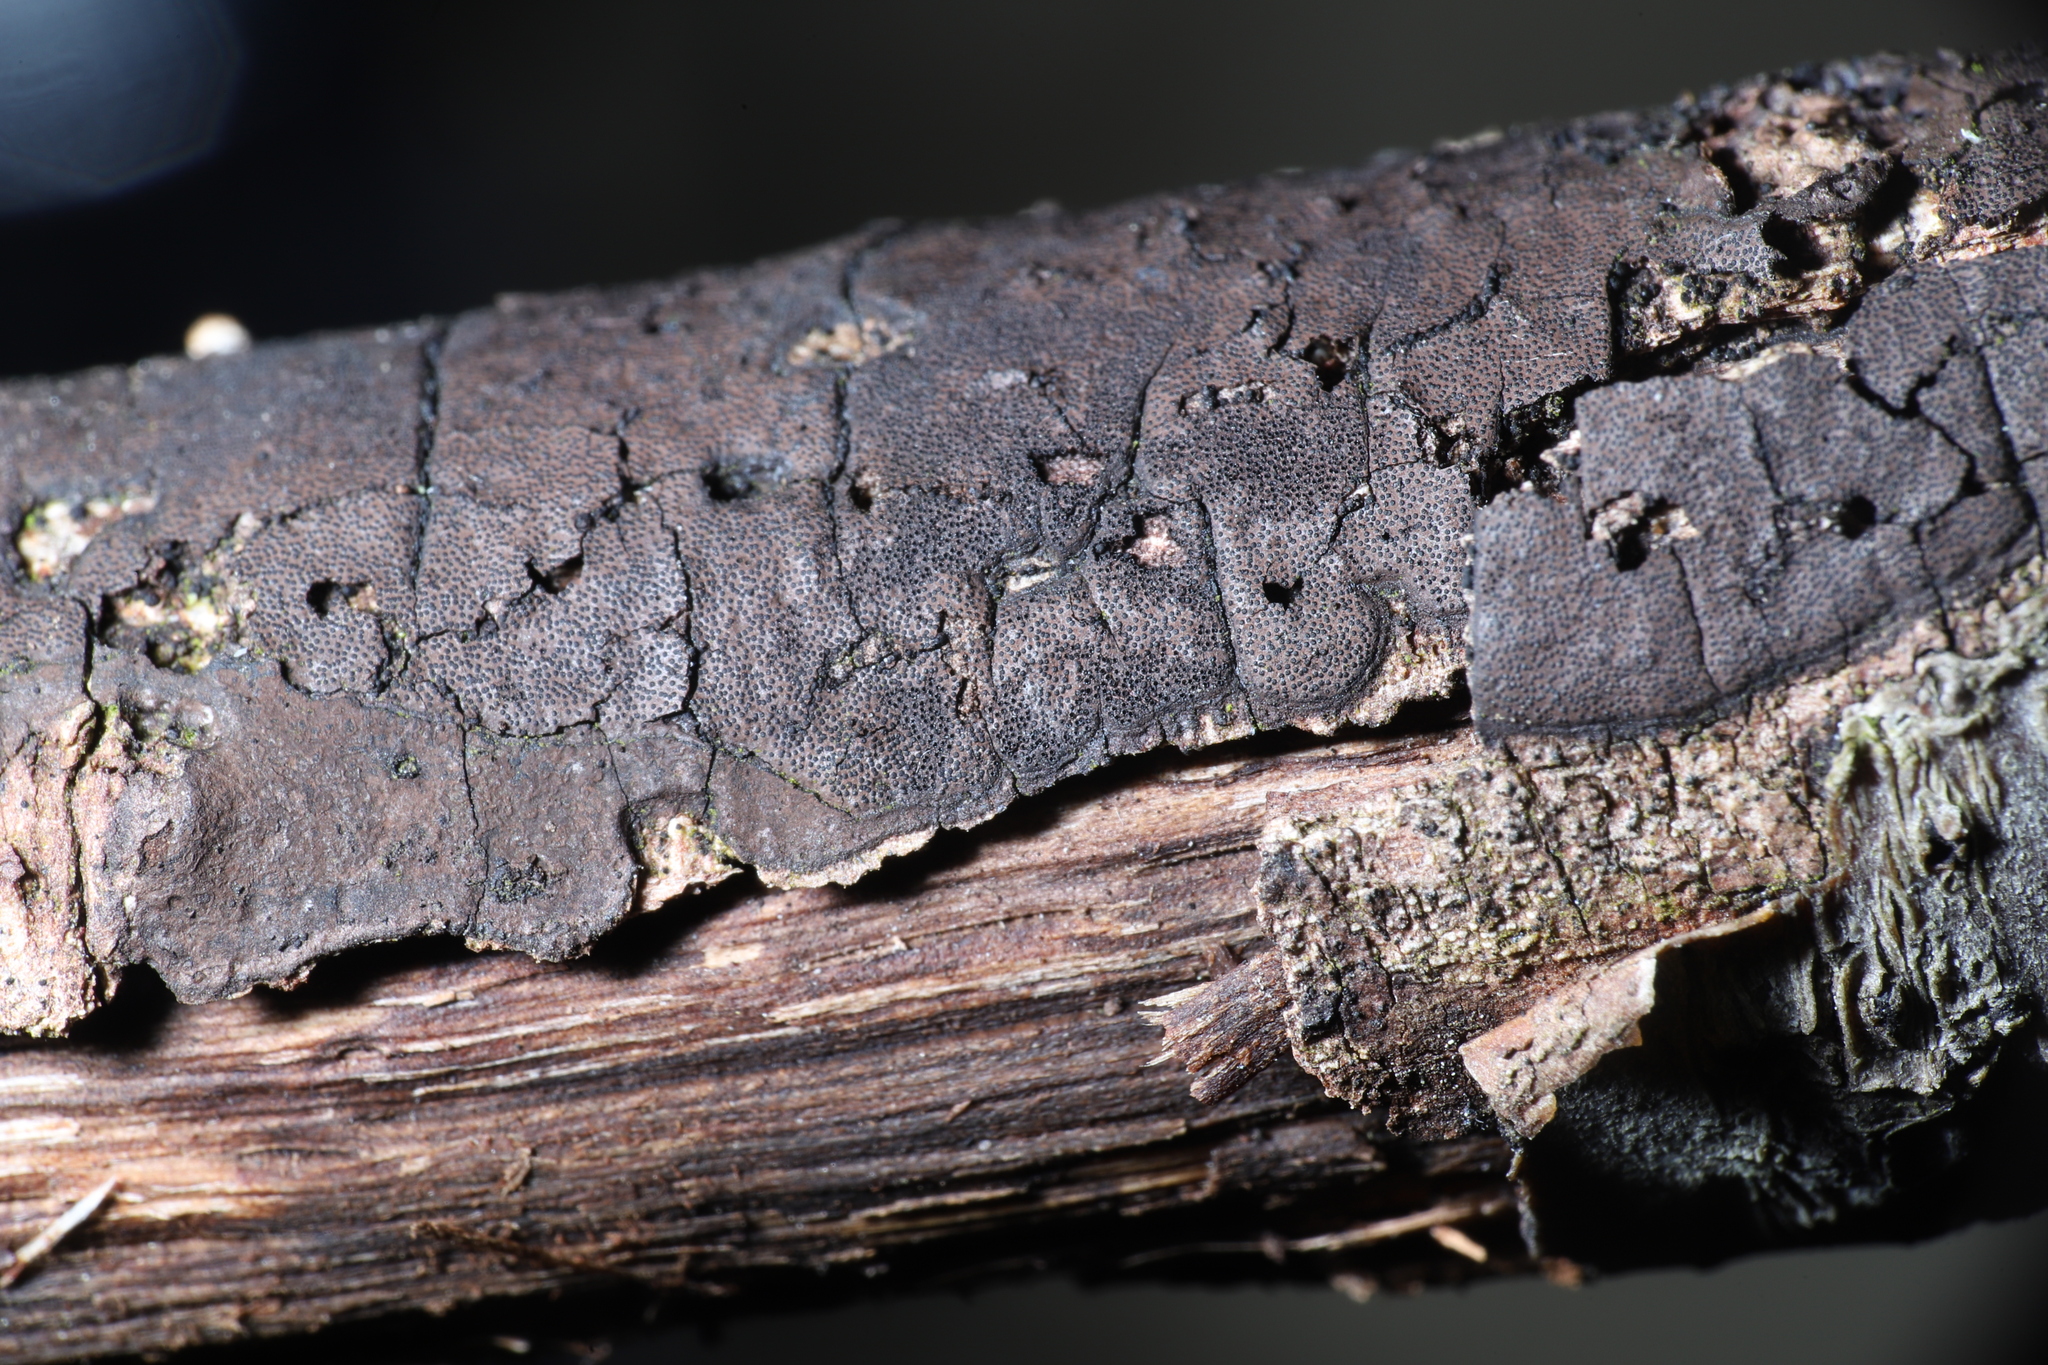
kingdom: Fungi
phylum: Ascomycota
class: Sordariomycetes
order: Xylariales
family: Graphostromataceae
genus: Graphostroma
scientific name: Graphostroma platystomum
